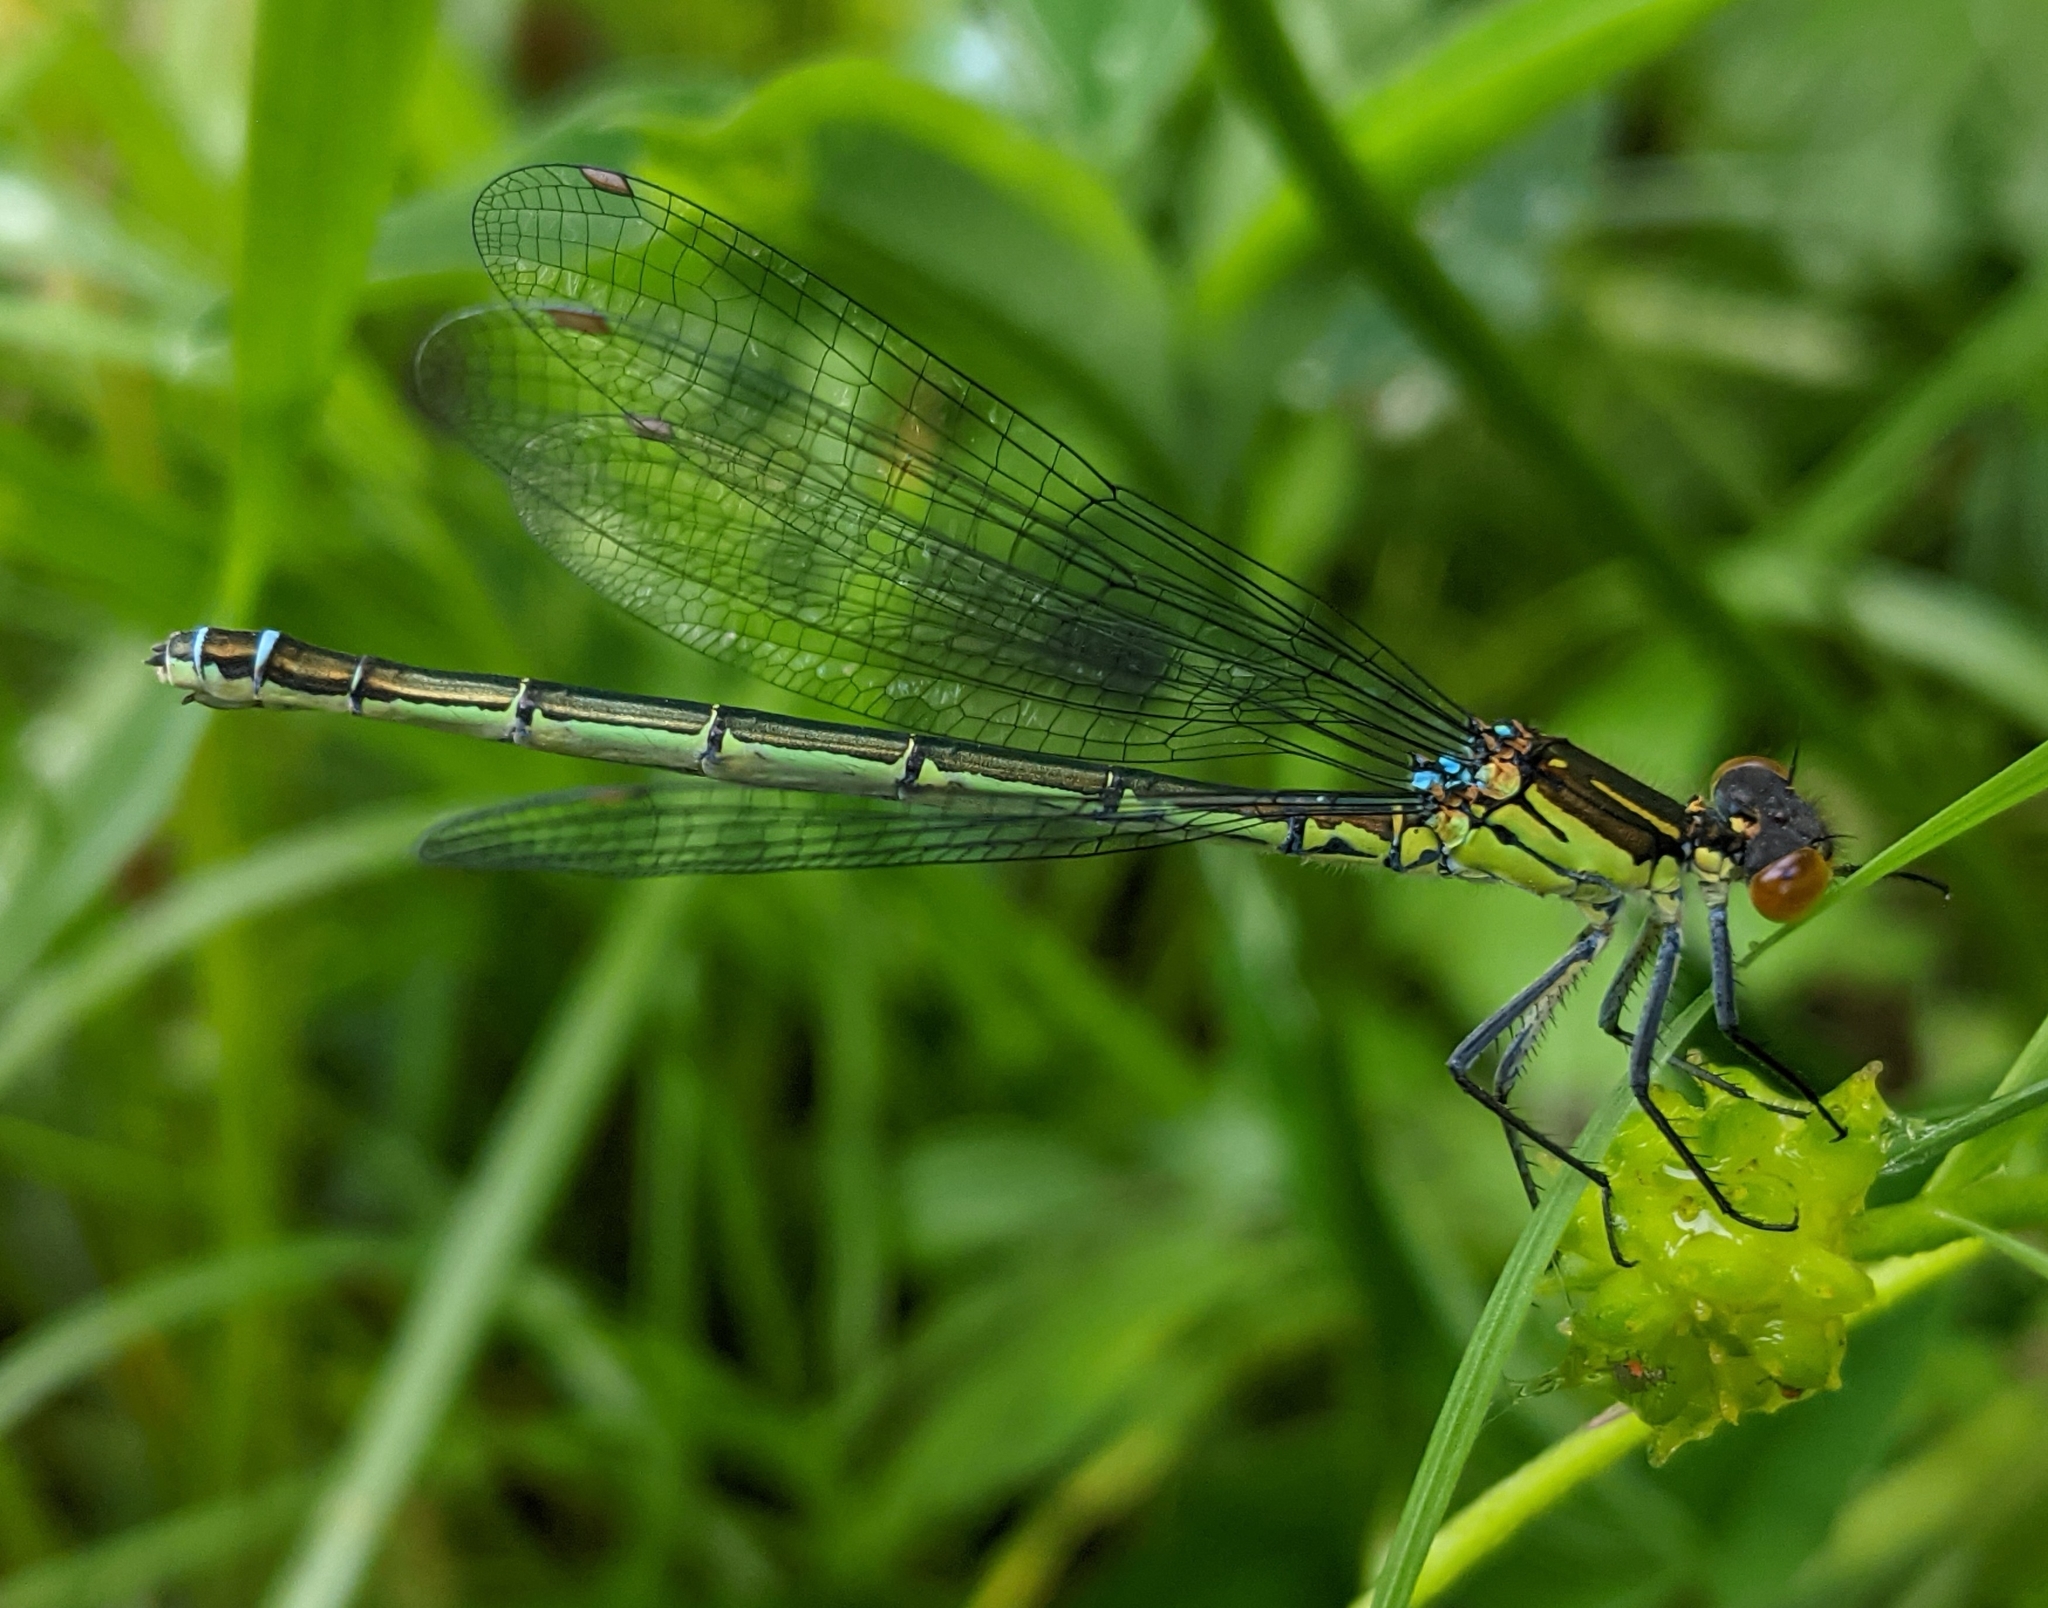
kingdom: Animalia
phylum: Arthropoda
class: Insecta
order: Odonata
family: Coenagrionidae
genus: Erythromma
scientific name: Erythromma najas
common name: Red-eyed damselfly
